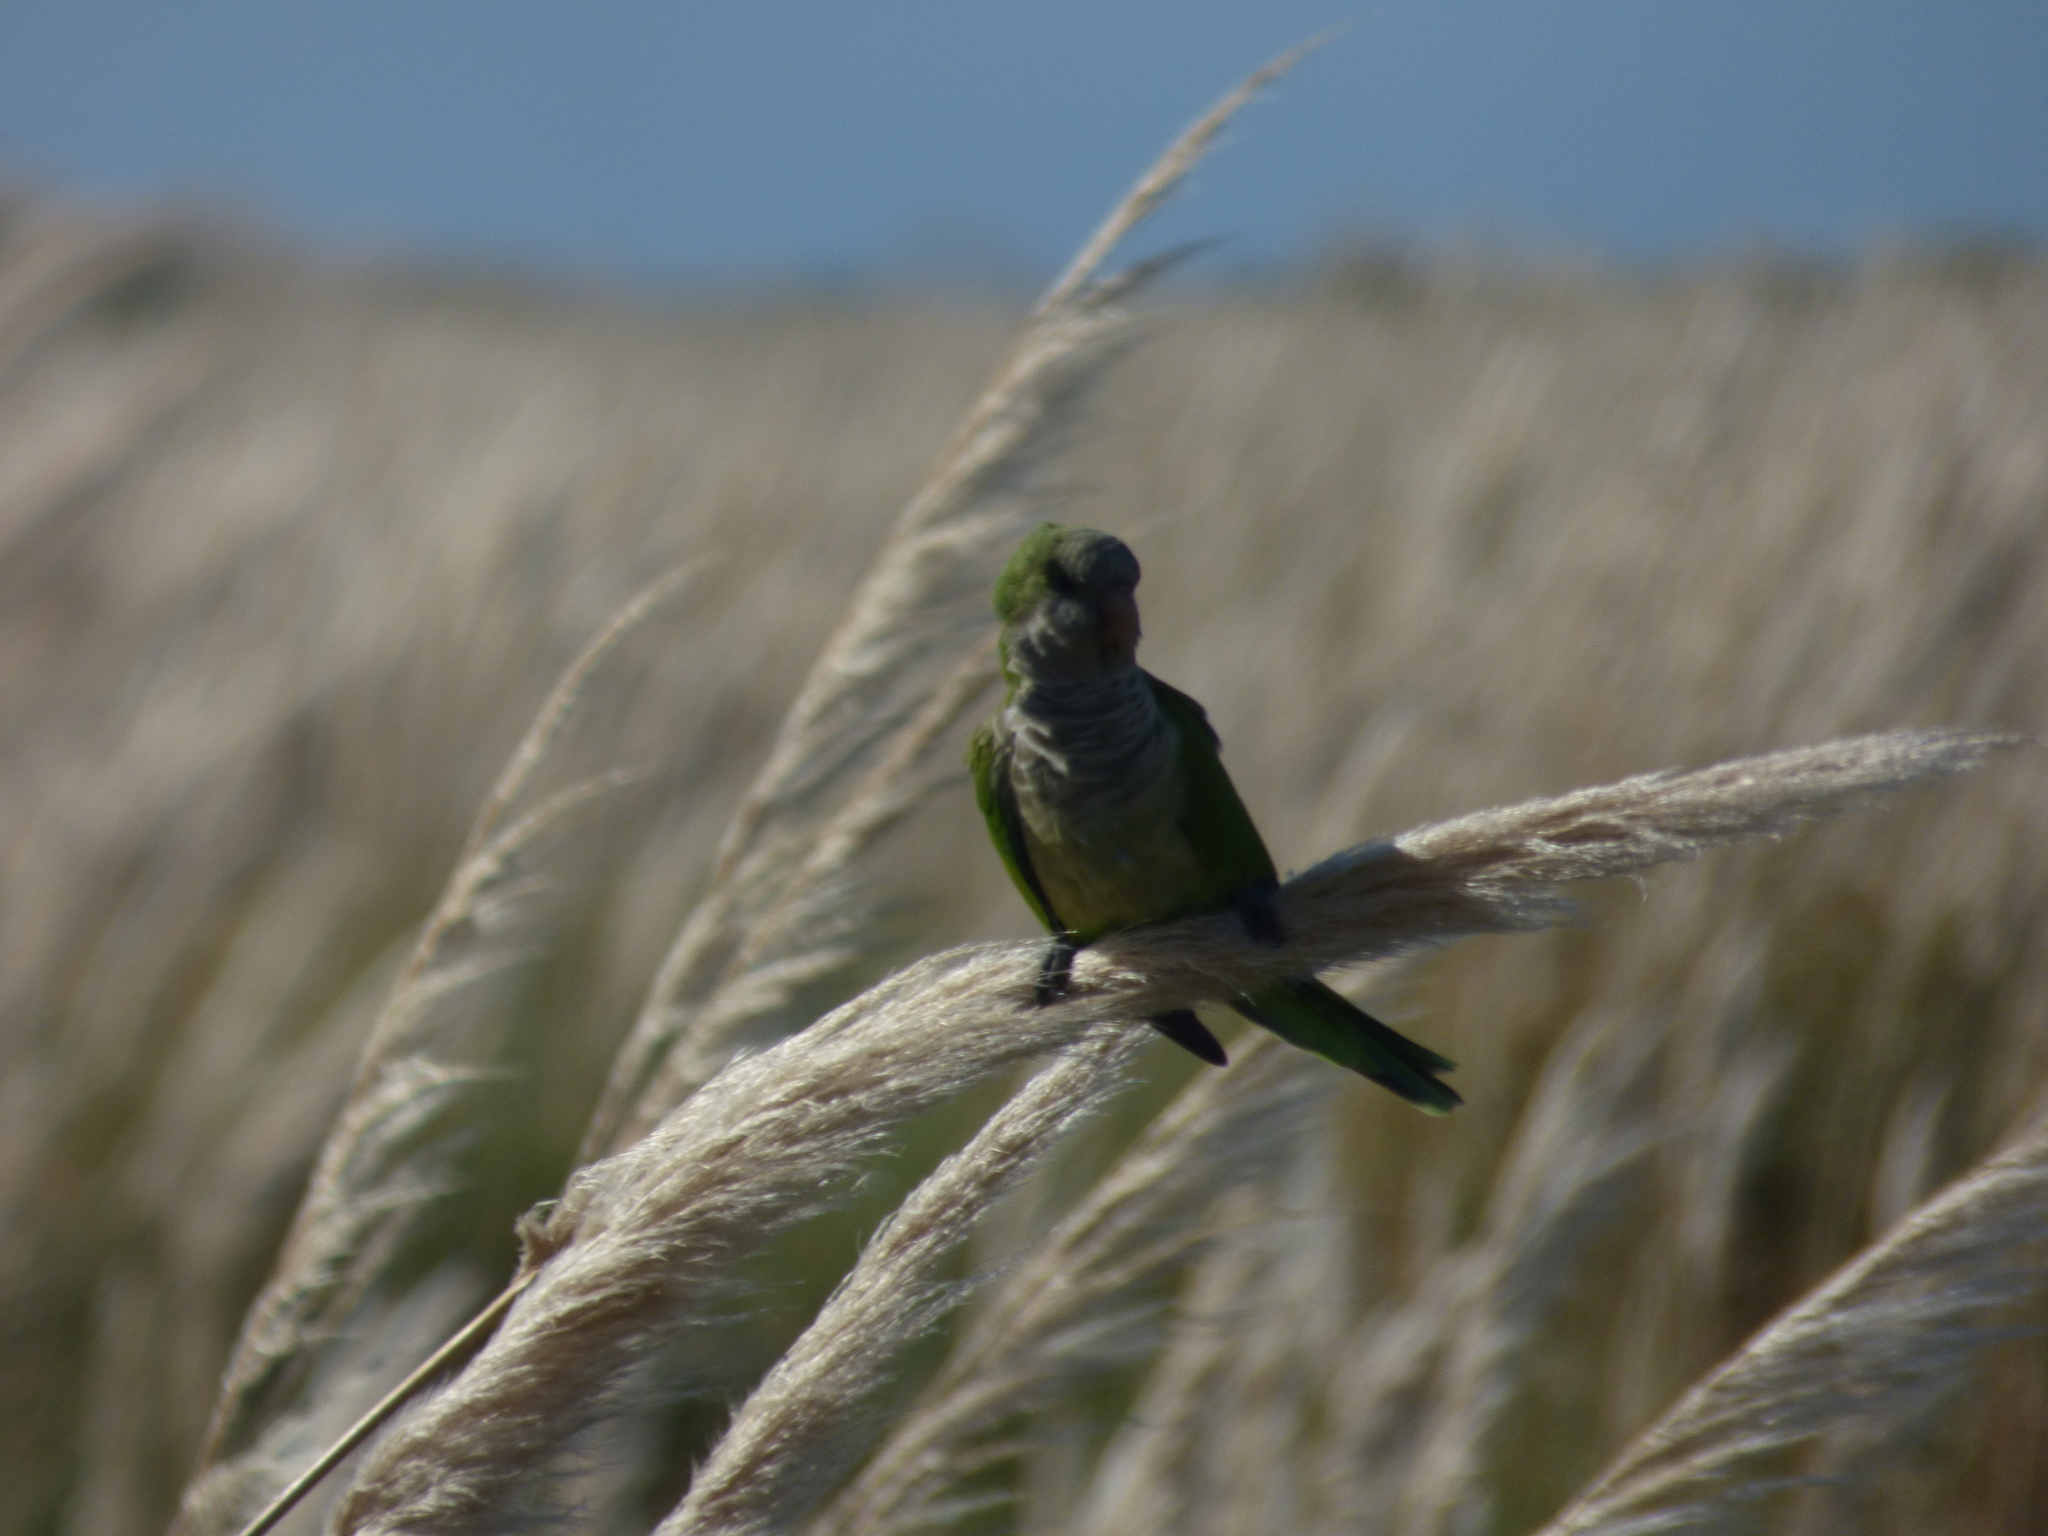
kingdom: Animalia
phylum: Chordata
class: Aves
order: Psittaciformes
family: Psittacidae
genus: Myiopsitta
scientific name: Myiopsitta monachus
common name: Monk parakeet
